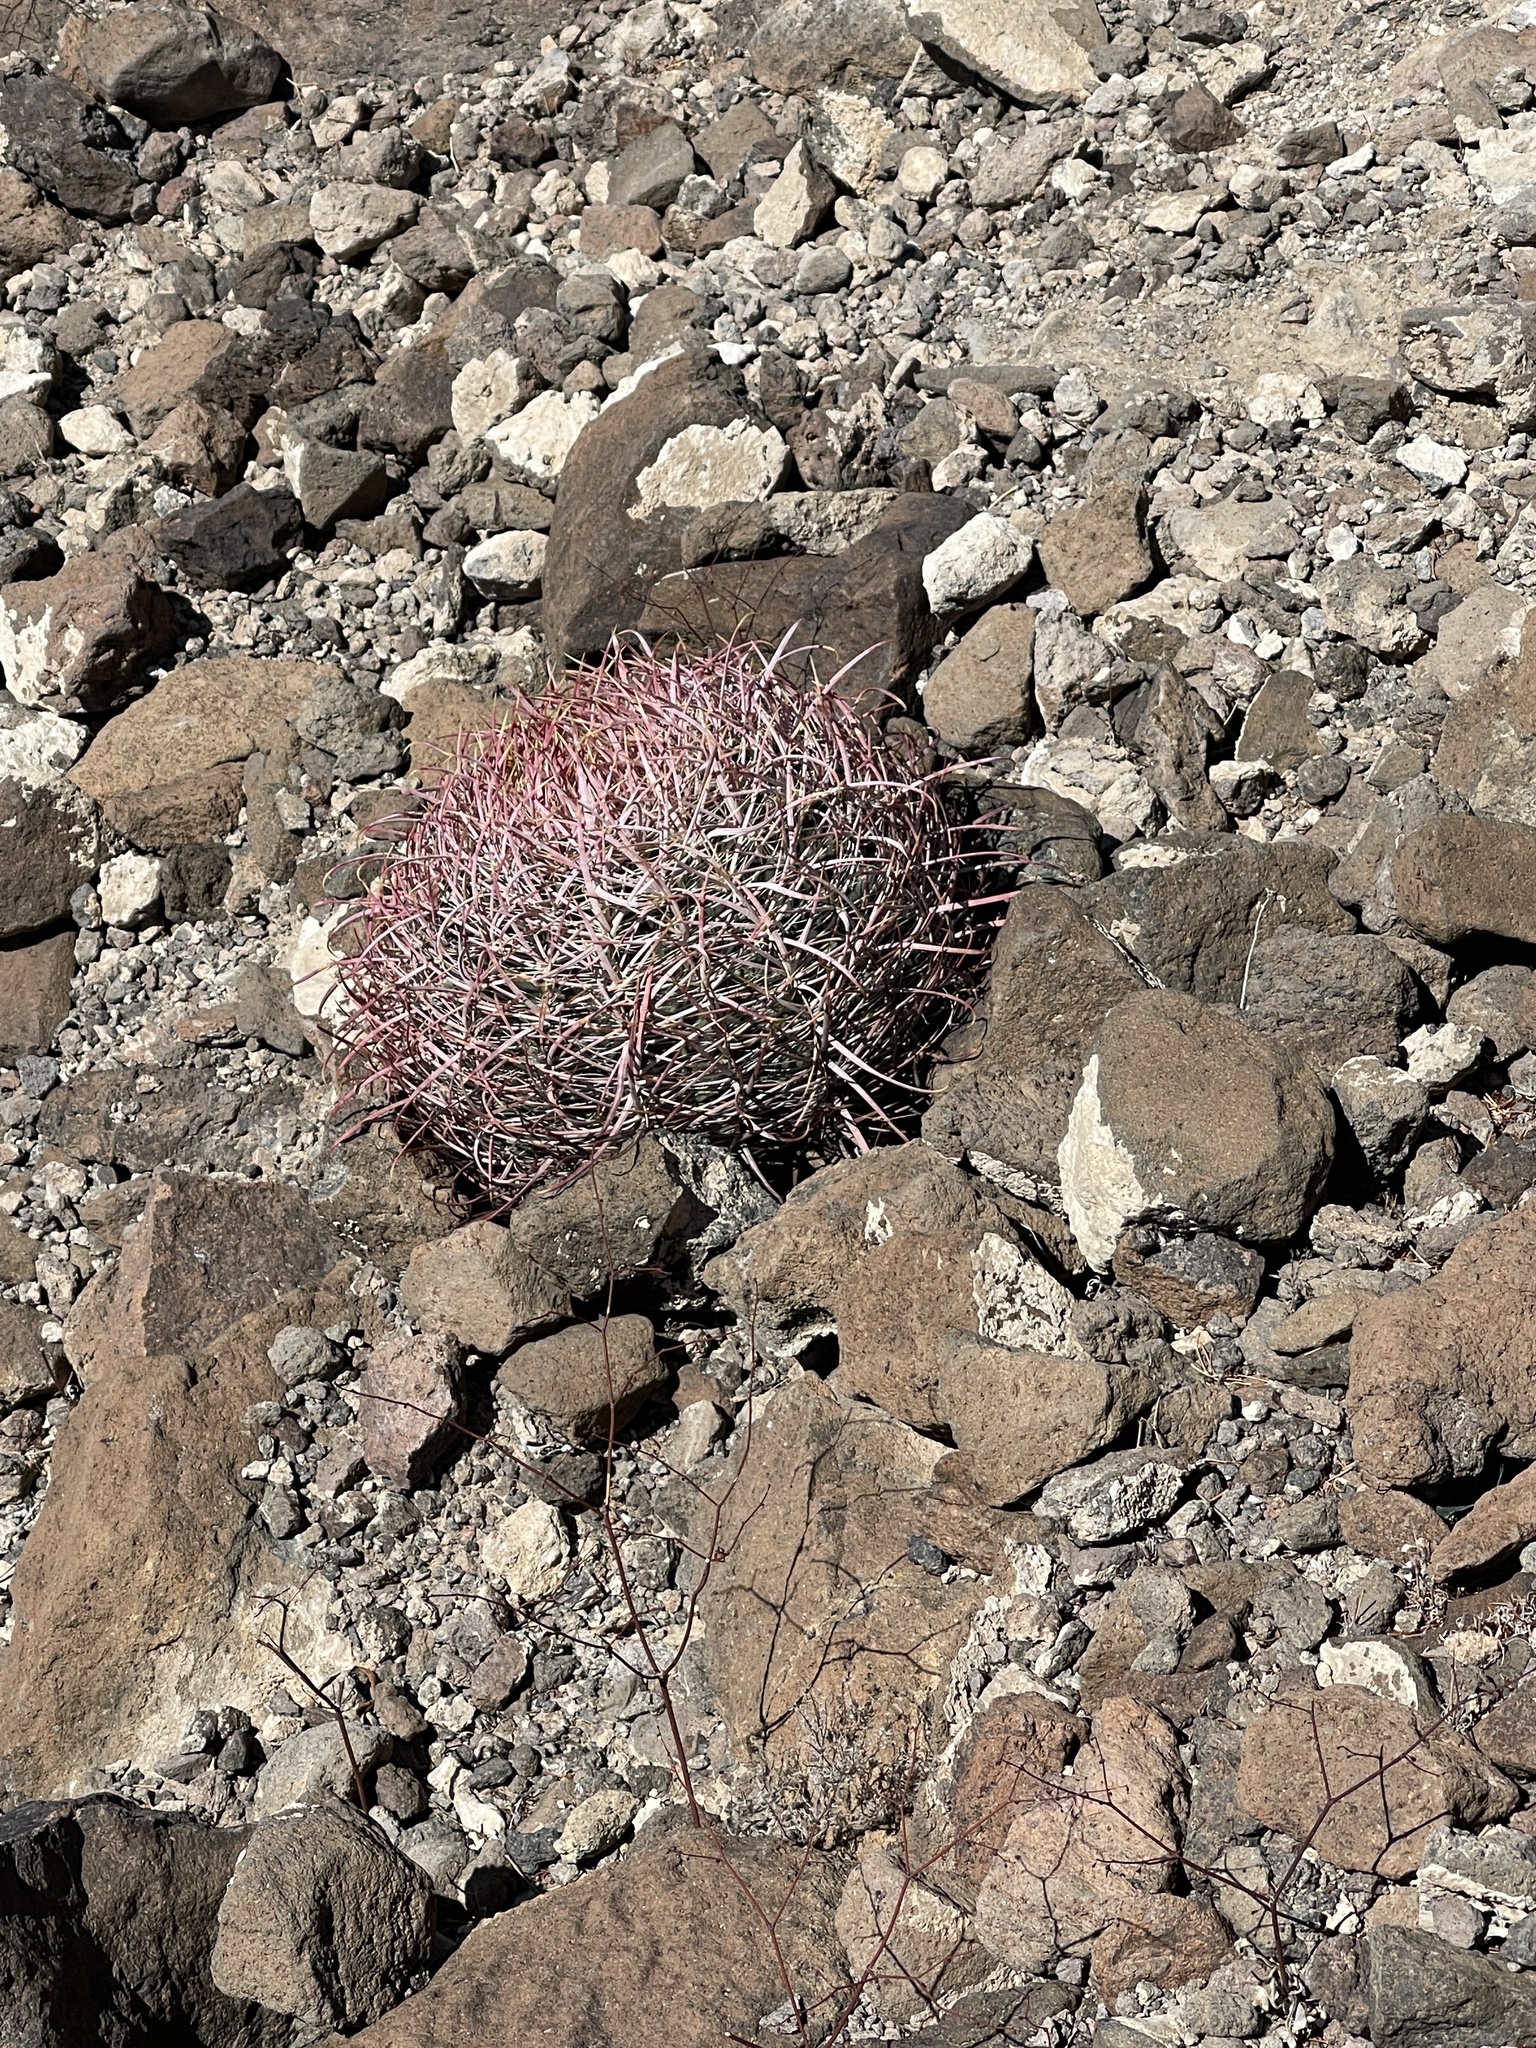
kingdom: Plantae
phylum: Tracheophyta
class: Magnoliopsida
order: Caryophyllales
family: Cactaceae
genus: Ferocactus
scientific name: Ferocactus cylindraceus
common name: California barrel cactus
